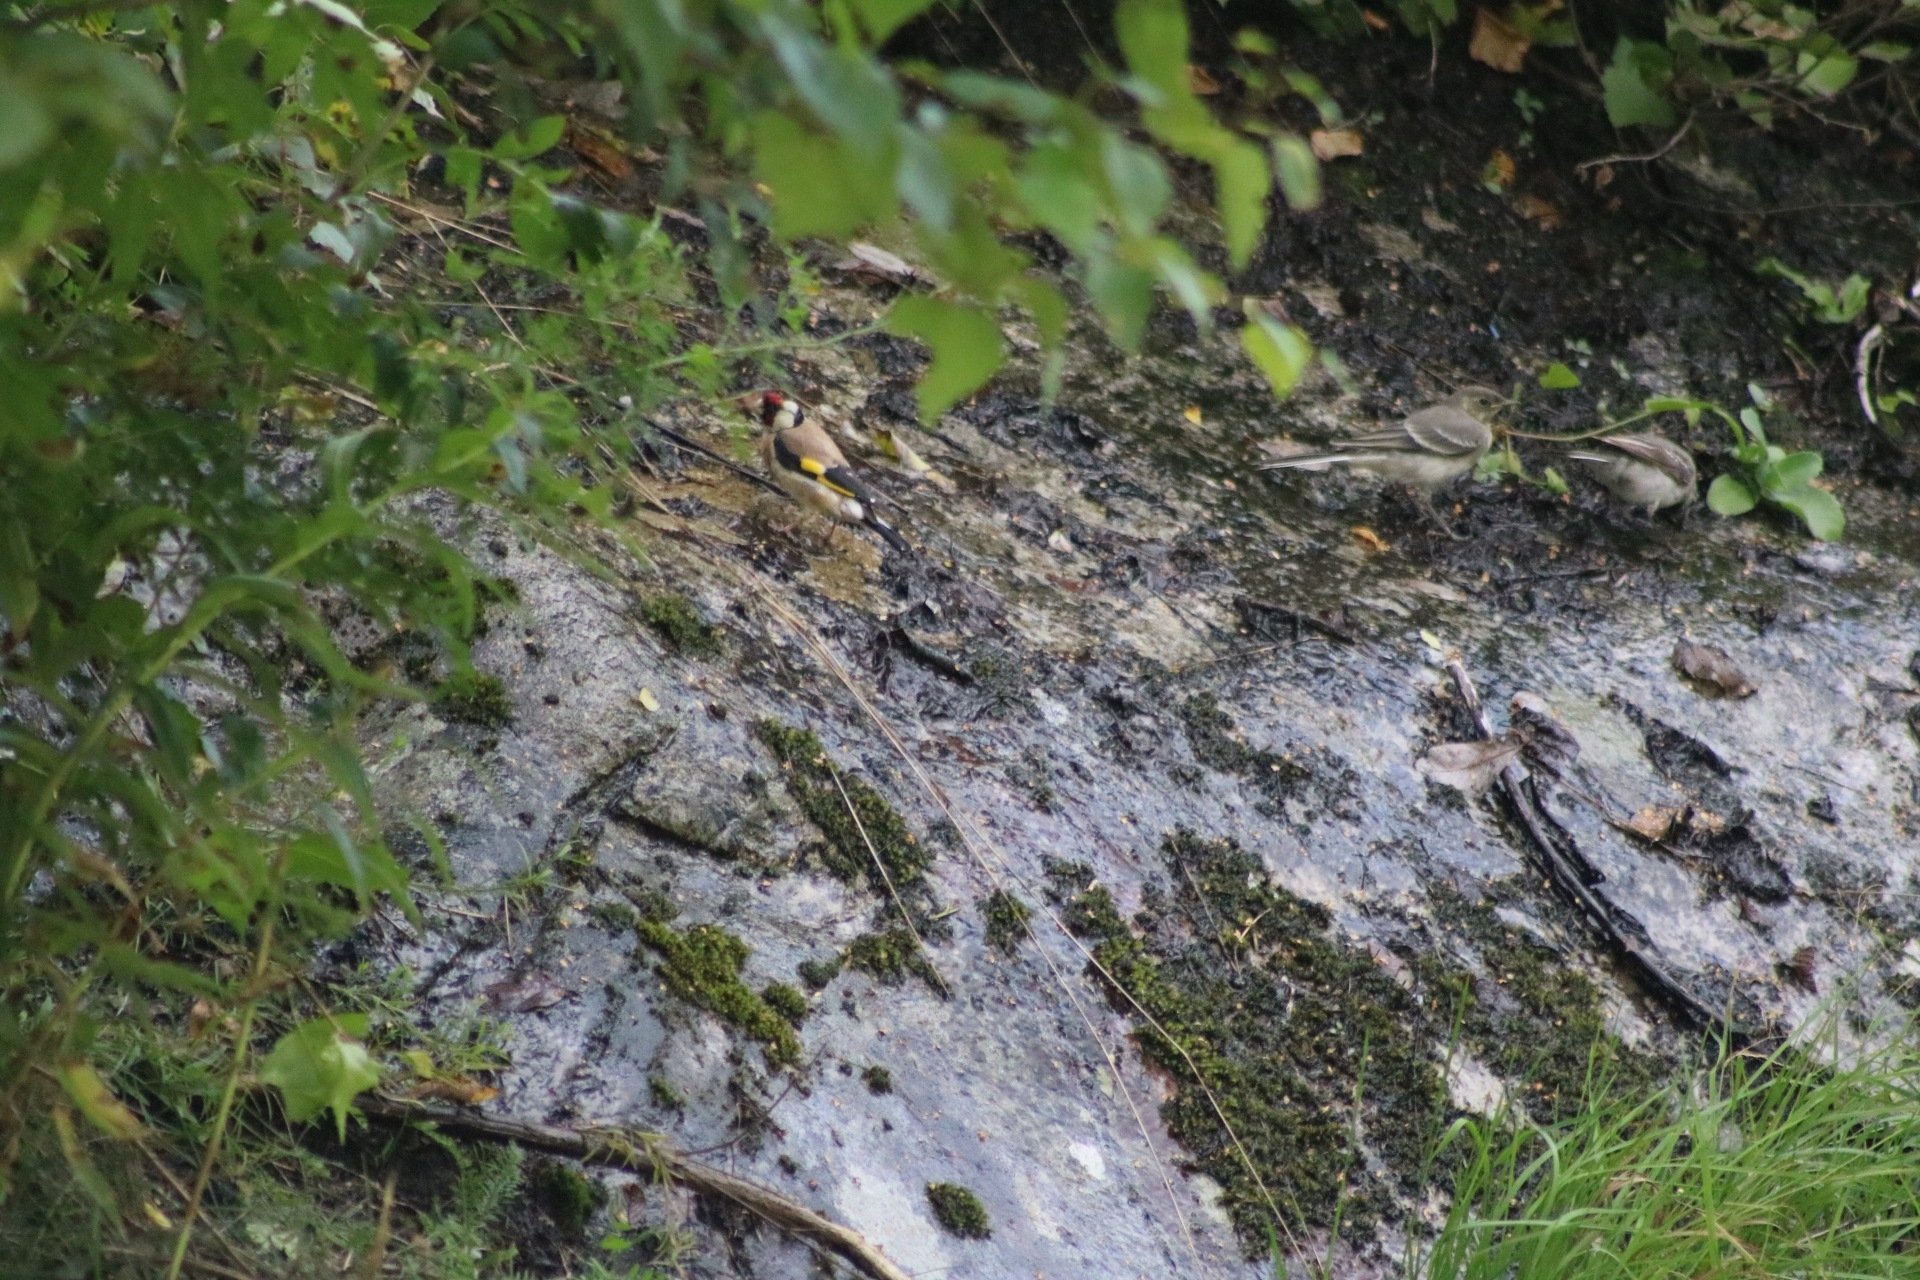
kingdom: Animalia
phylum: Chordata
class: Aves
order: Passeriformes
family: Fringillidae
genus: Carduelis
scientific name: Carduelis carduelis
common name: European goldfinch
